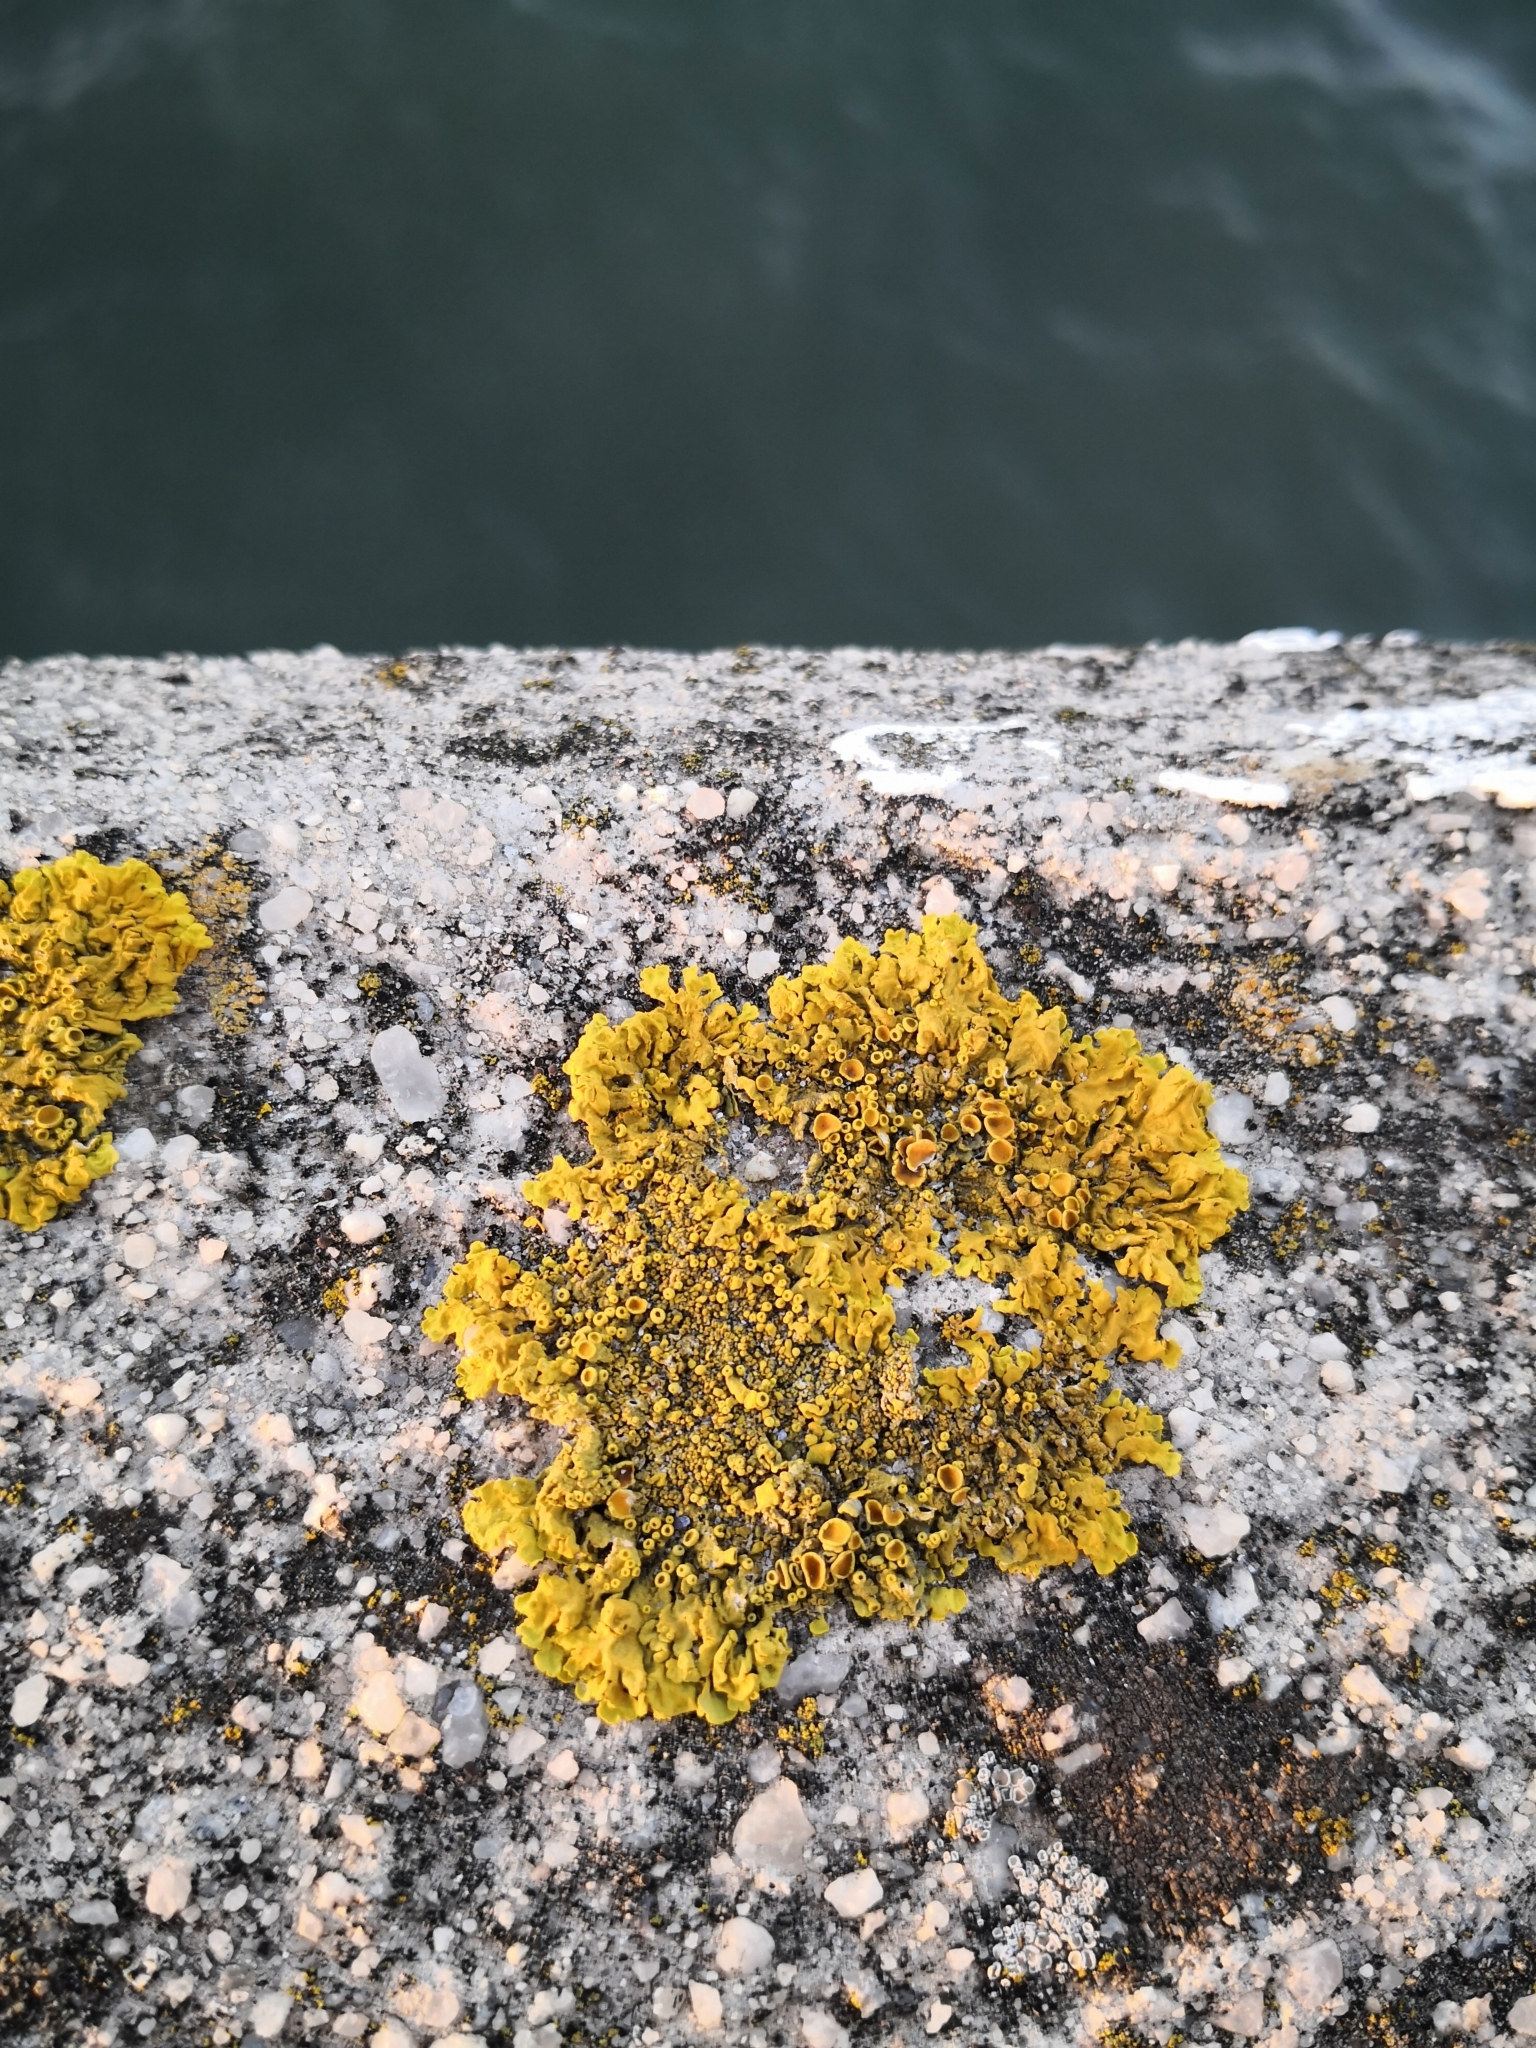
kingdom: Fungi
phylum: Ascomycota
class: Lecanoromycetes
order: Teloschistales
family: Teloschistaceae
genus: Xanthoria
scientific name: Xanthoria parietina
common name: Common orange lichen
